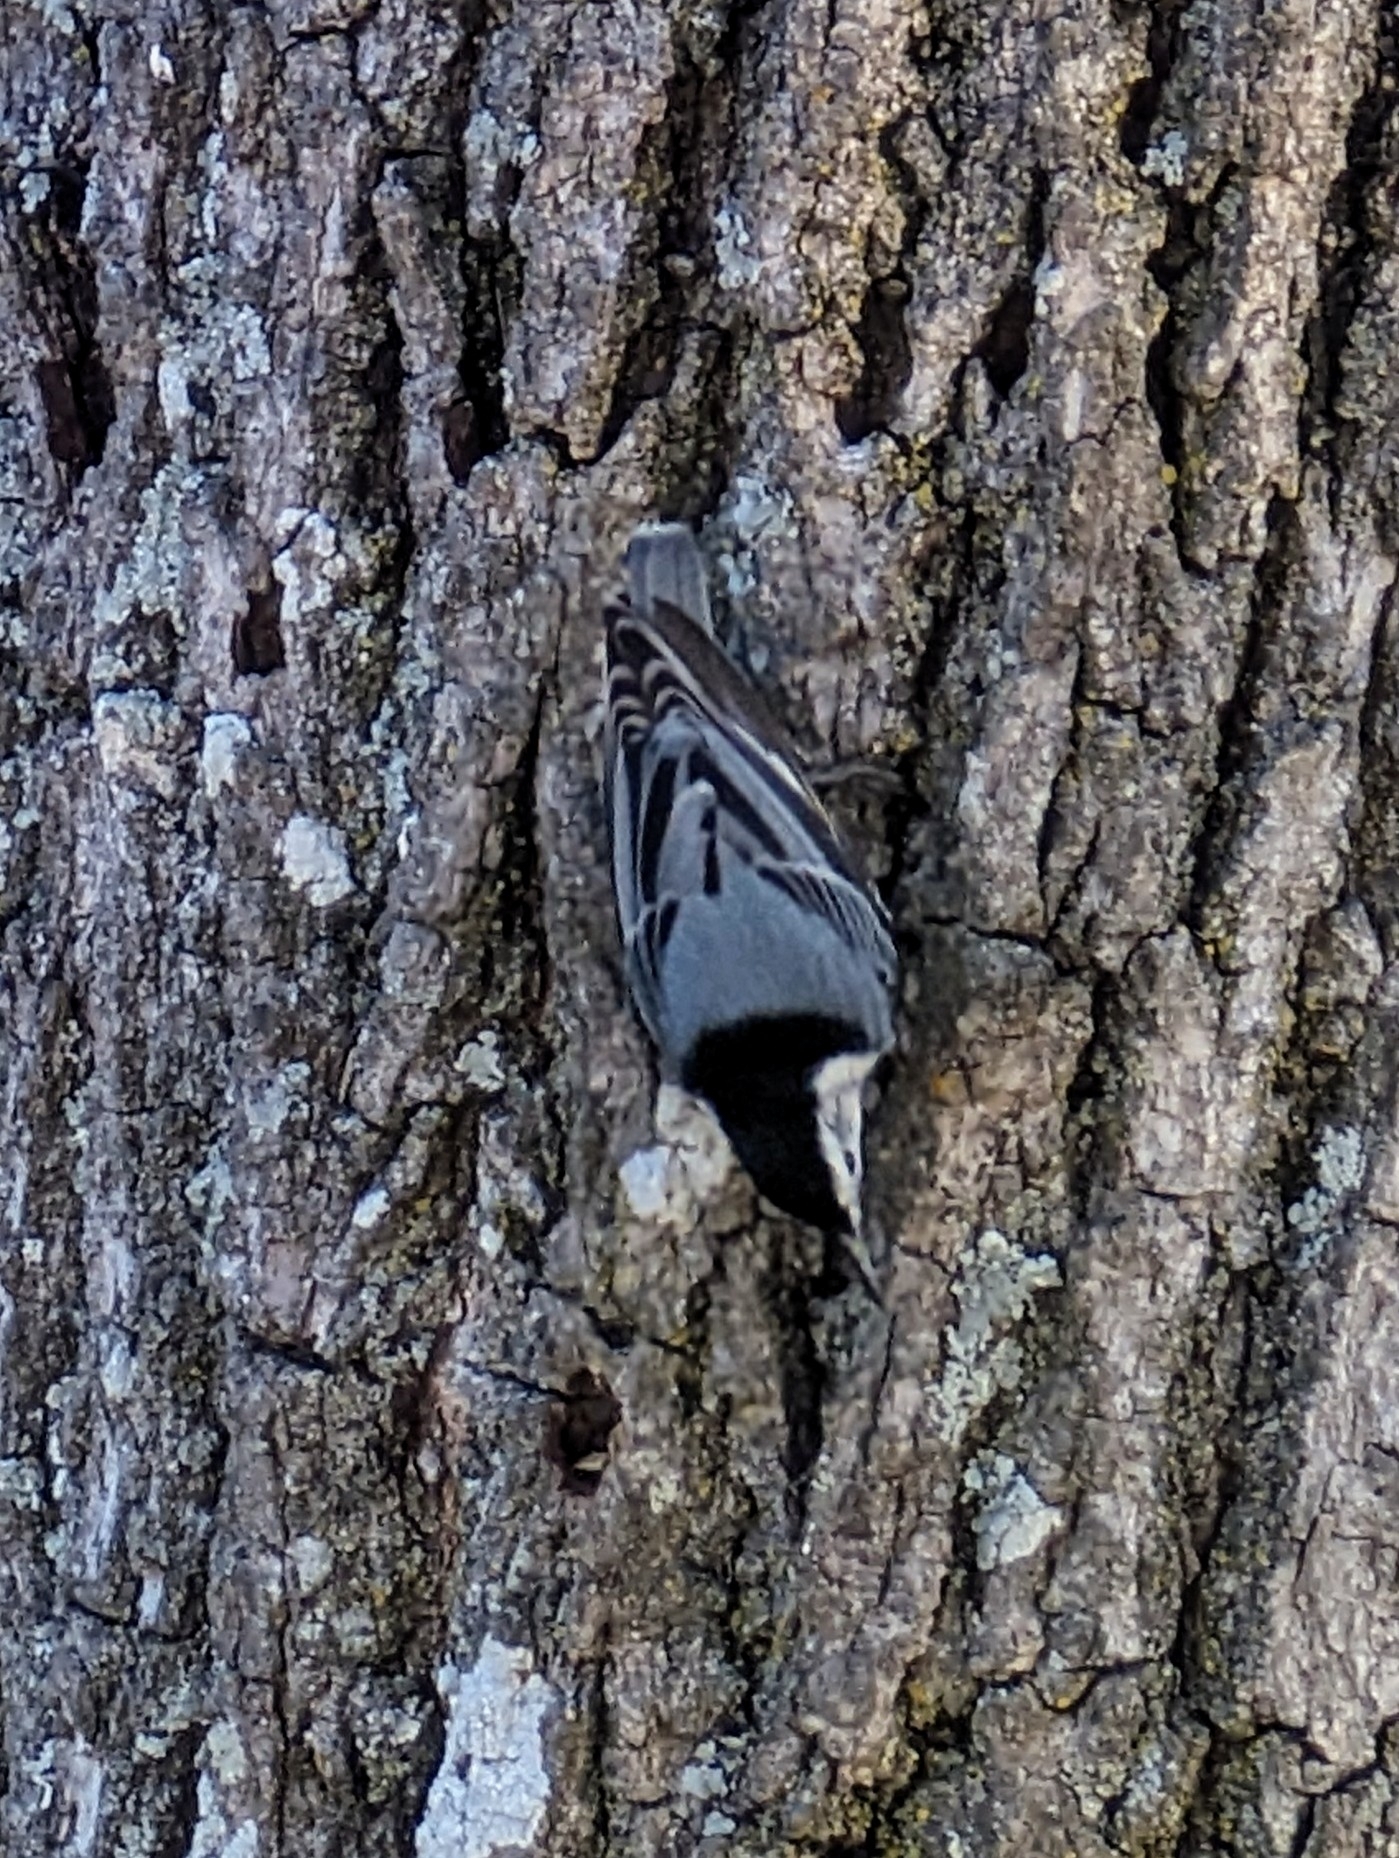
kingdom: Animalia
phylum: Chordata
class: Aves
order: Passeriformes
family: Sittidae
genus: Sitta
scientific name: Sitta carolinensis
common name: White-breasted nuthatch
